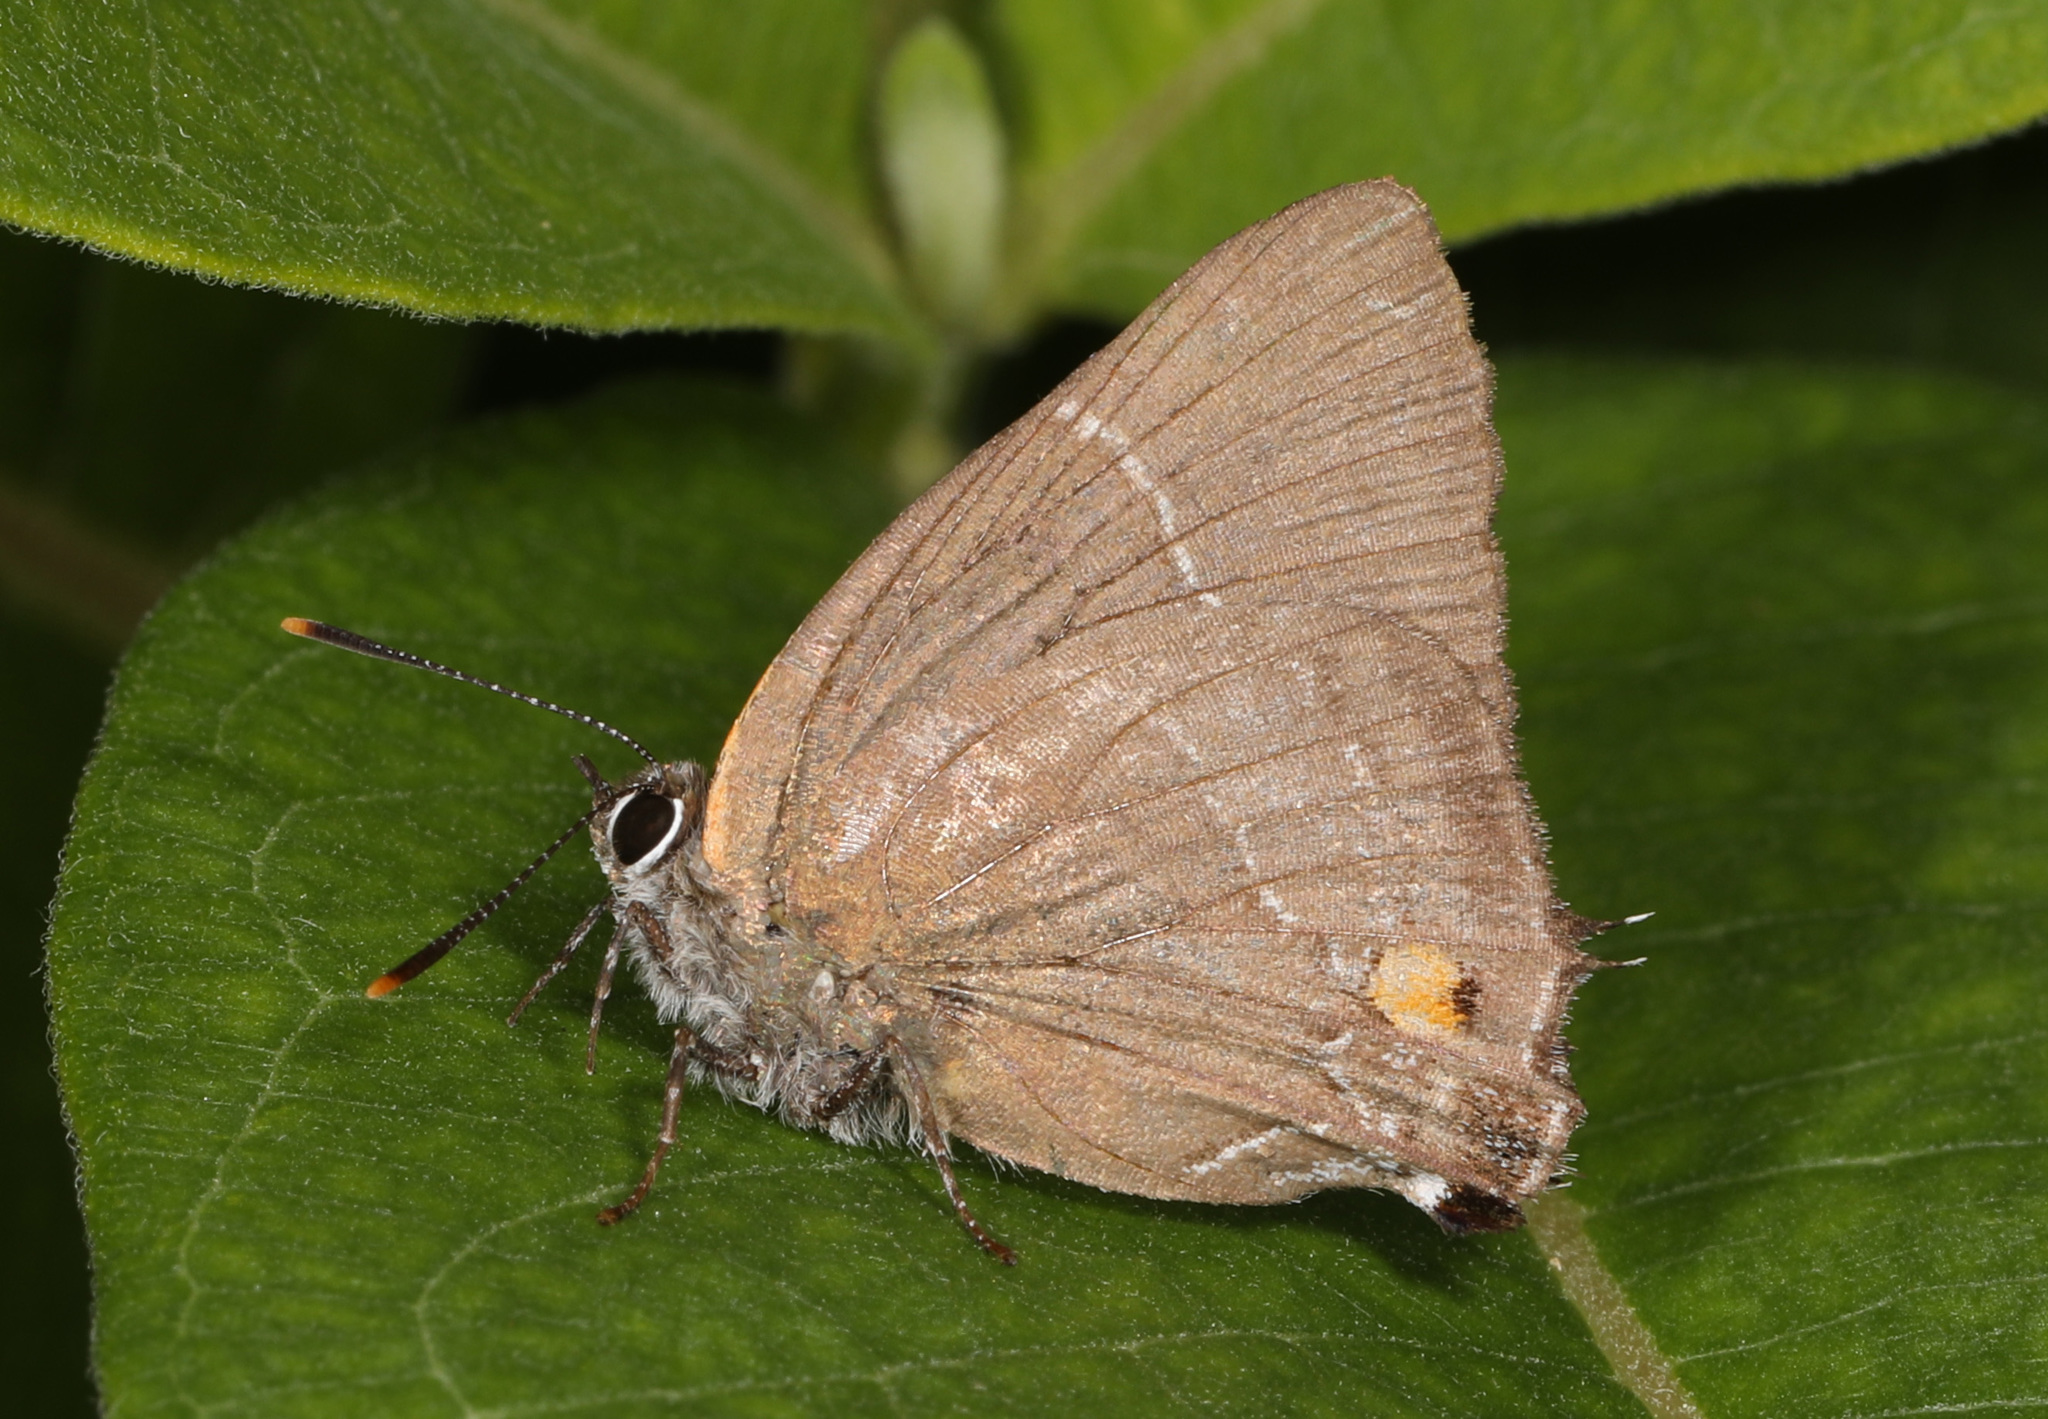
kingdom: Animalia
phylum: Arthropoda
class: Insecta
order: Lepidoptera
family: Lycaenidae
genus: Strymon
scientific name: Strymon melinus
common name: Gray hairstreak
